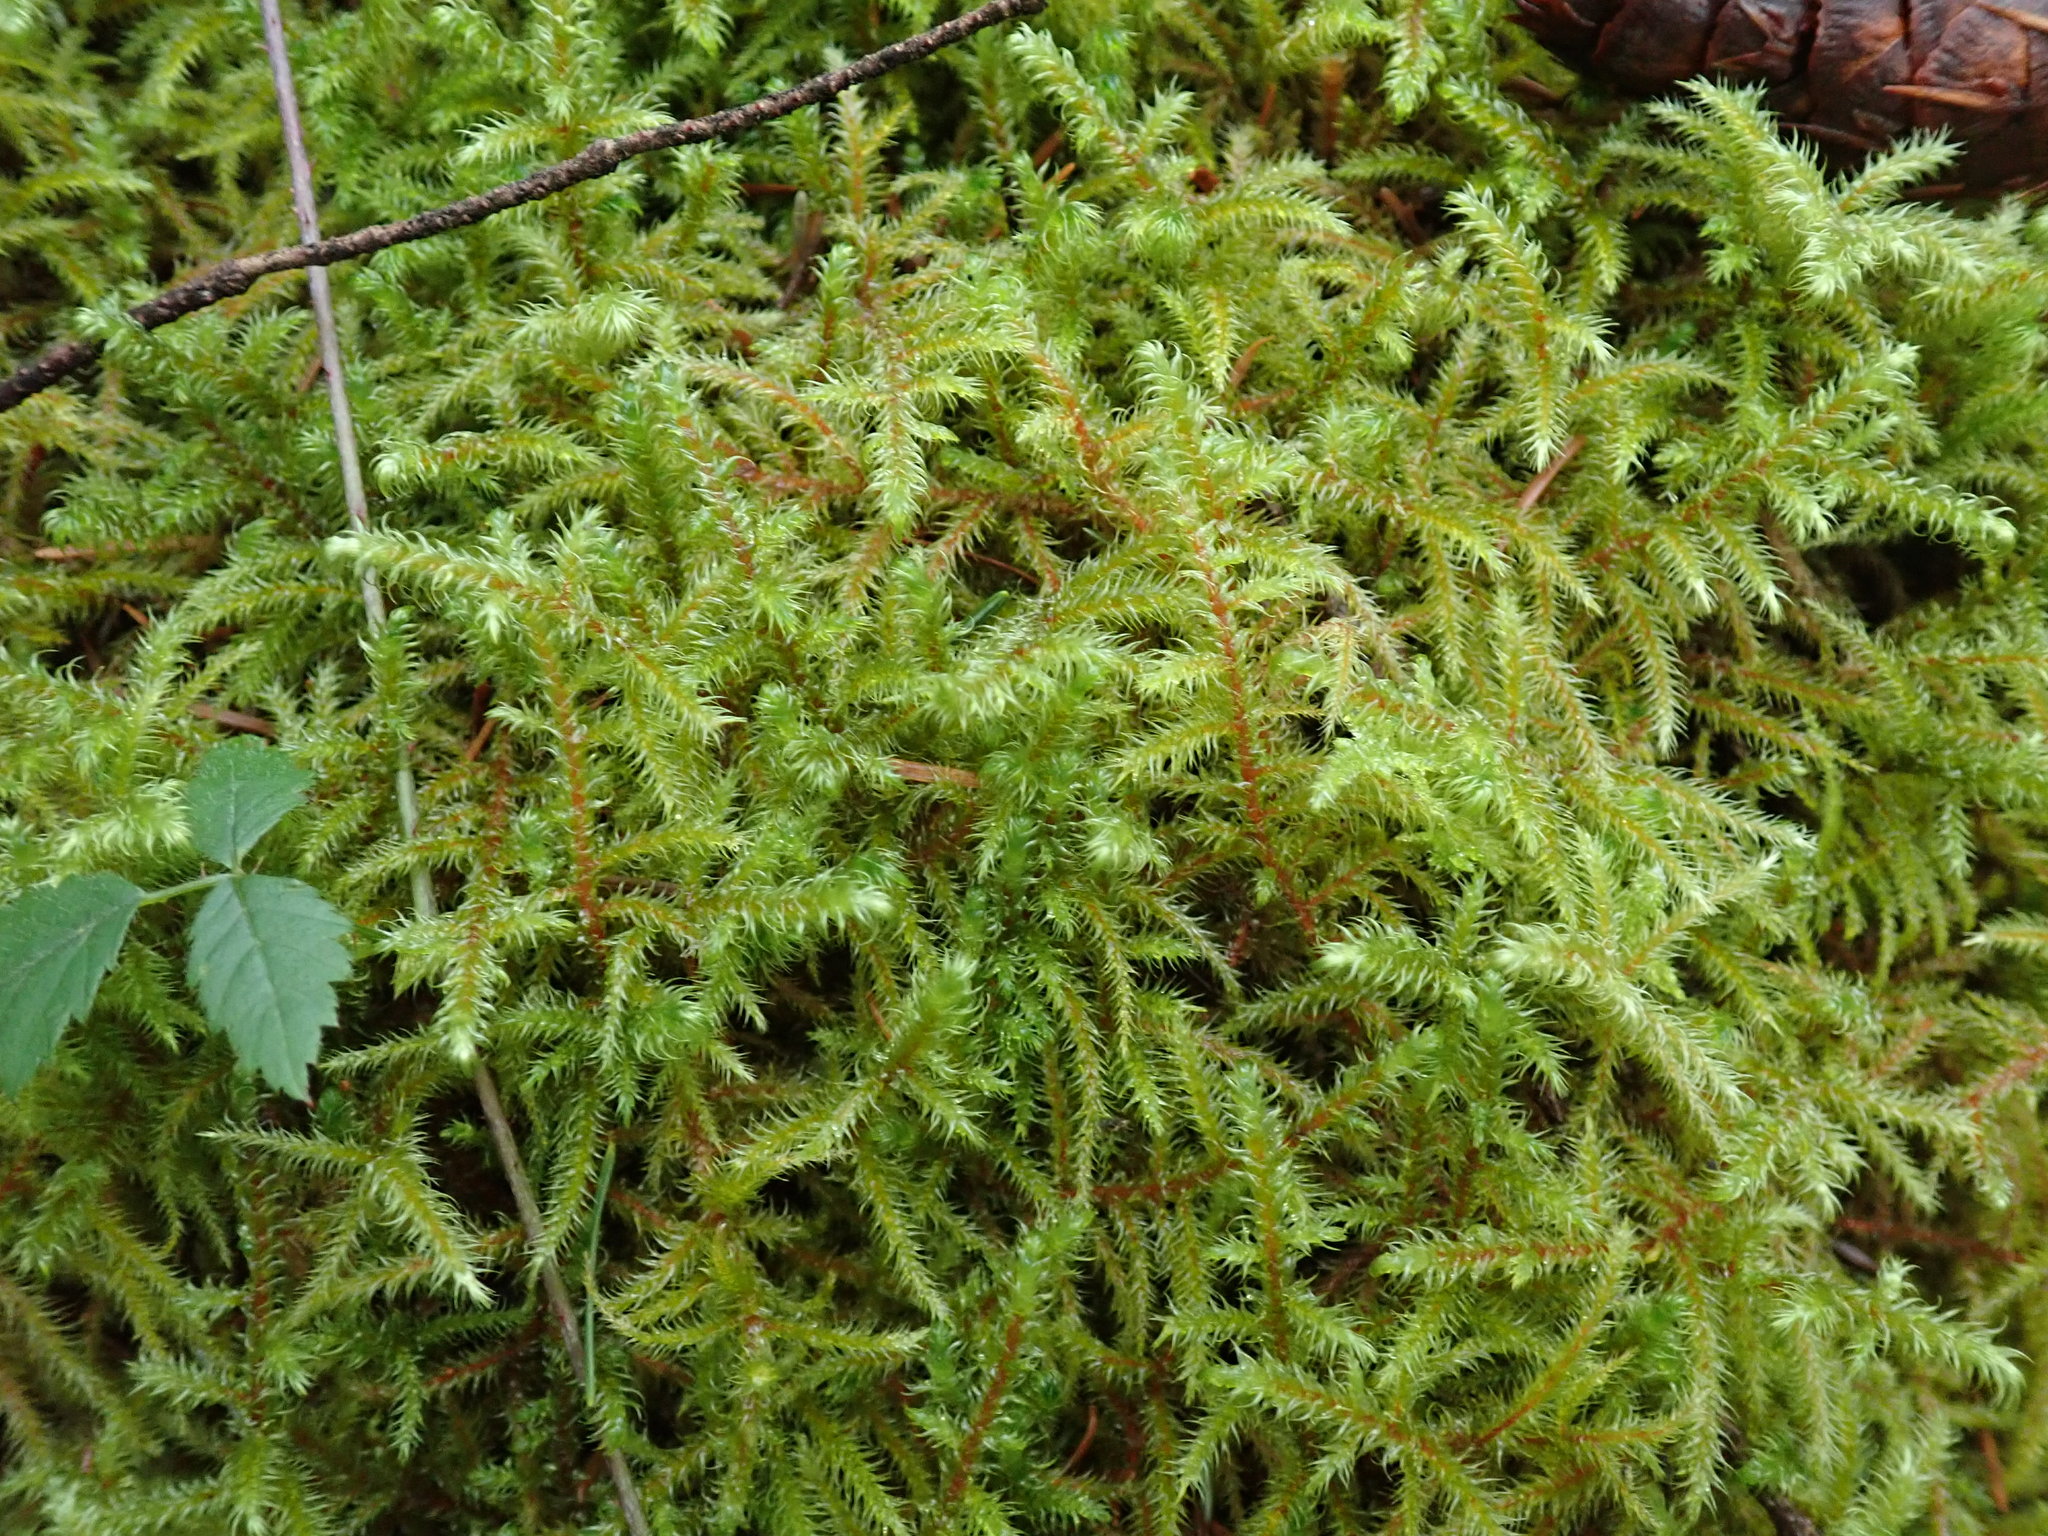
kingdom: Plantae
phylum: Bryophyta
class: Bryopsida
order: Hypnales
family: Hylocomiaceae
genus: Rhytidiadelphus
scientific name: Rhytidiadelphus loreus
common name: Lanky moss
